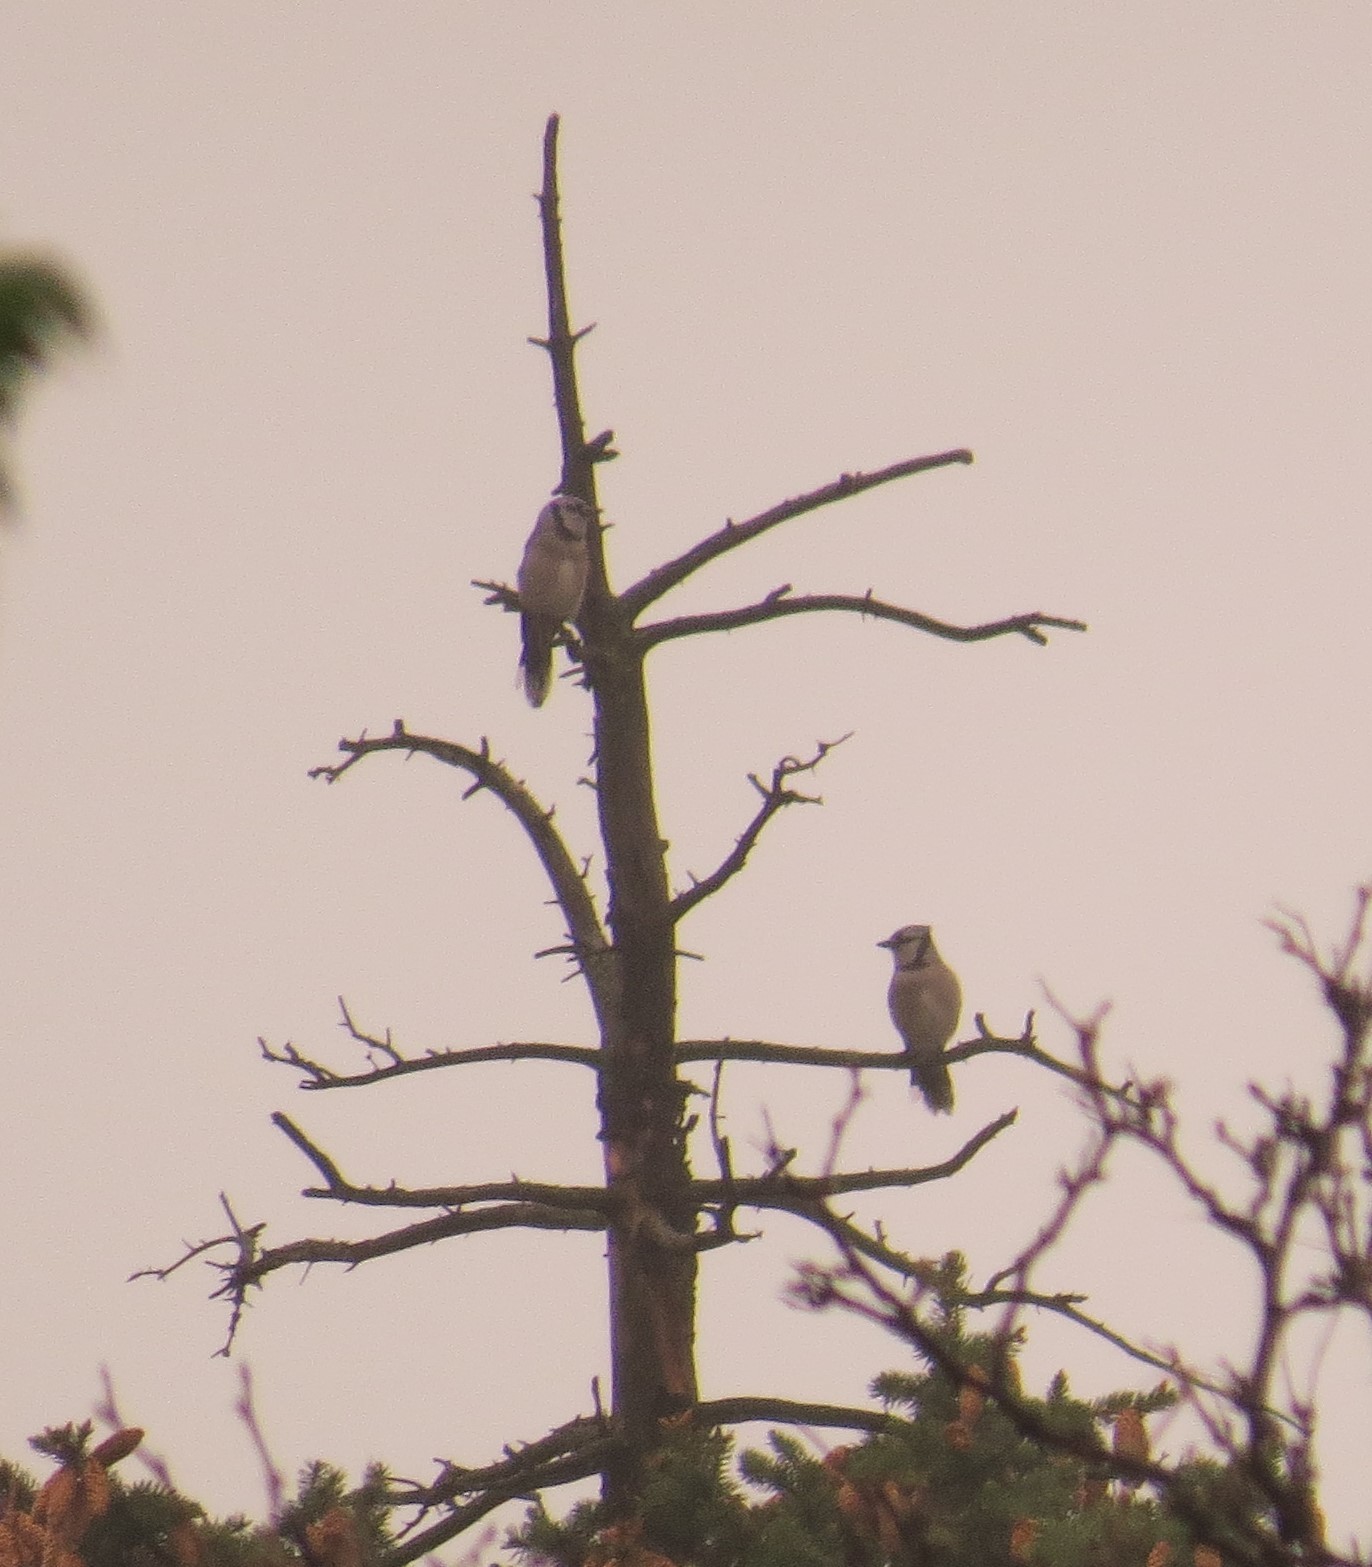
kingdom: Animalia
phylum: Chordata
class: Aves
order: Passeriformes
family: Corvidae
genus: Cyanocitta
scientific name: Cyanocitta cristata
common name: Blue jay
